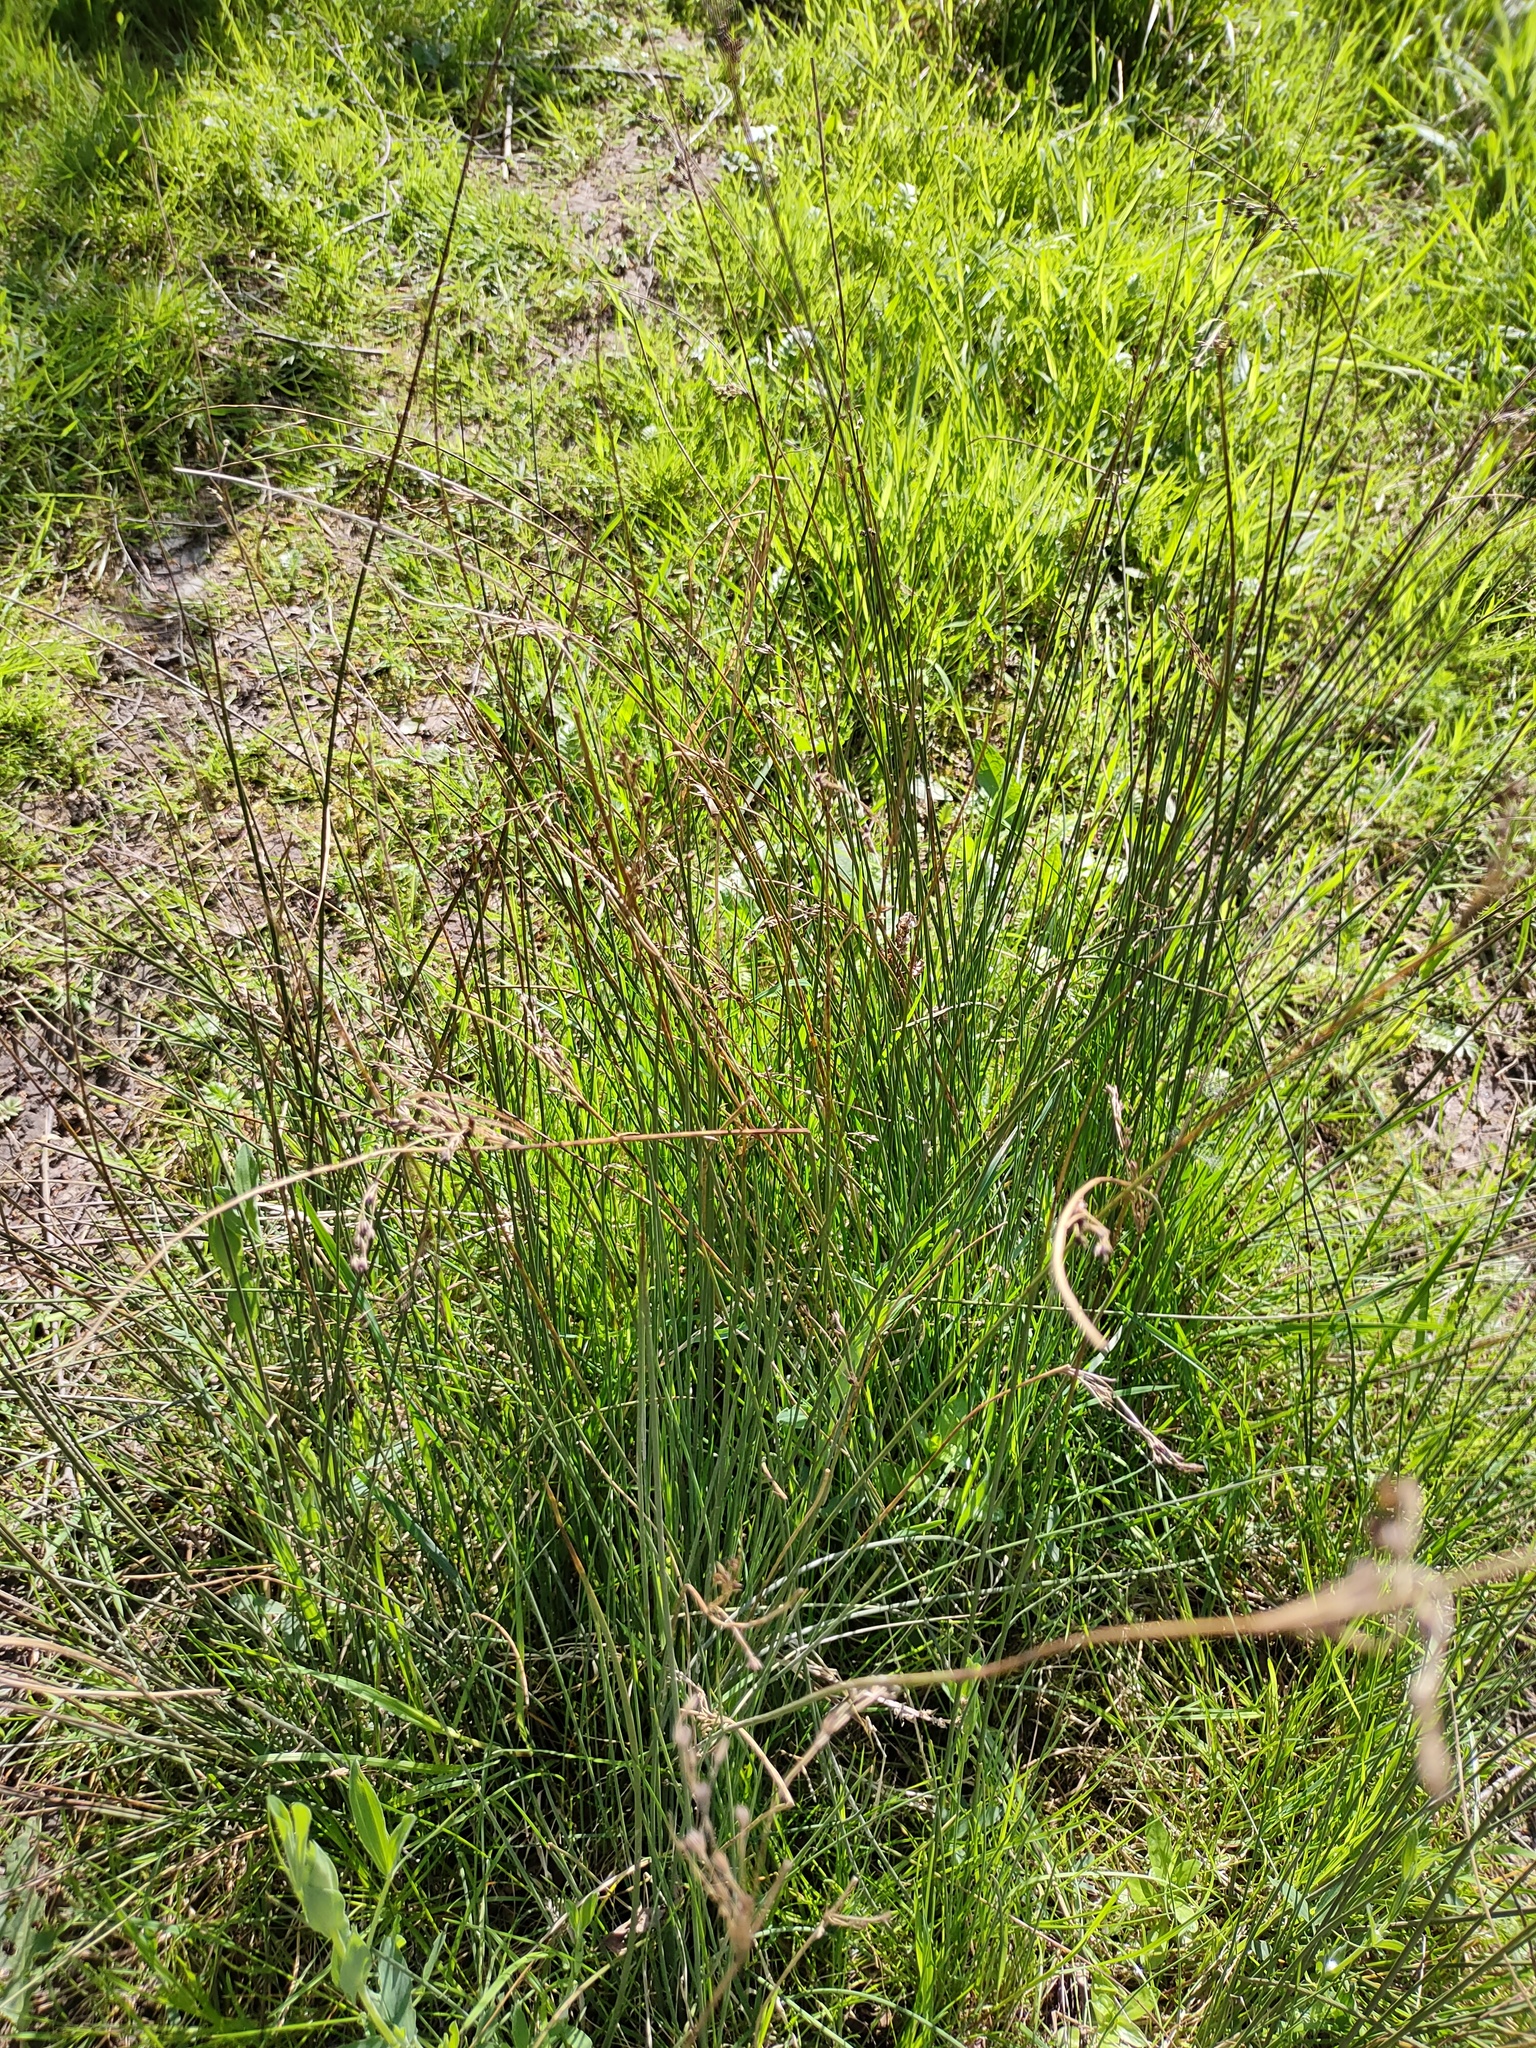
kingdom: Plantae
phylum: Tracheophyta
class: Liliopsida
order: Poales
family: Juncaceae
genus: Juncus
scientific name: Juncus effusus
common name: Soft rush
